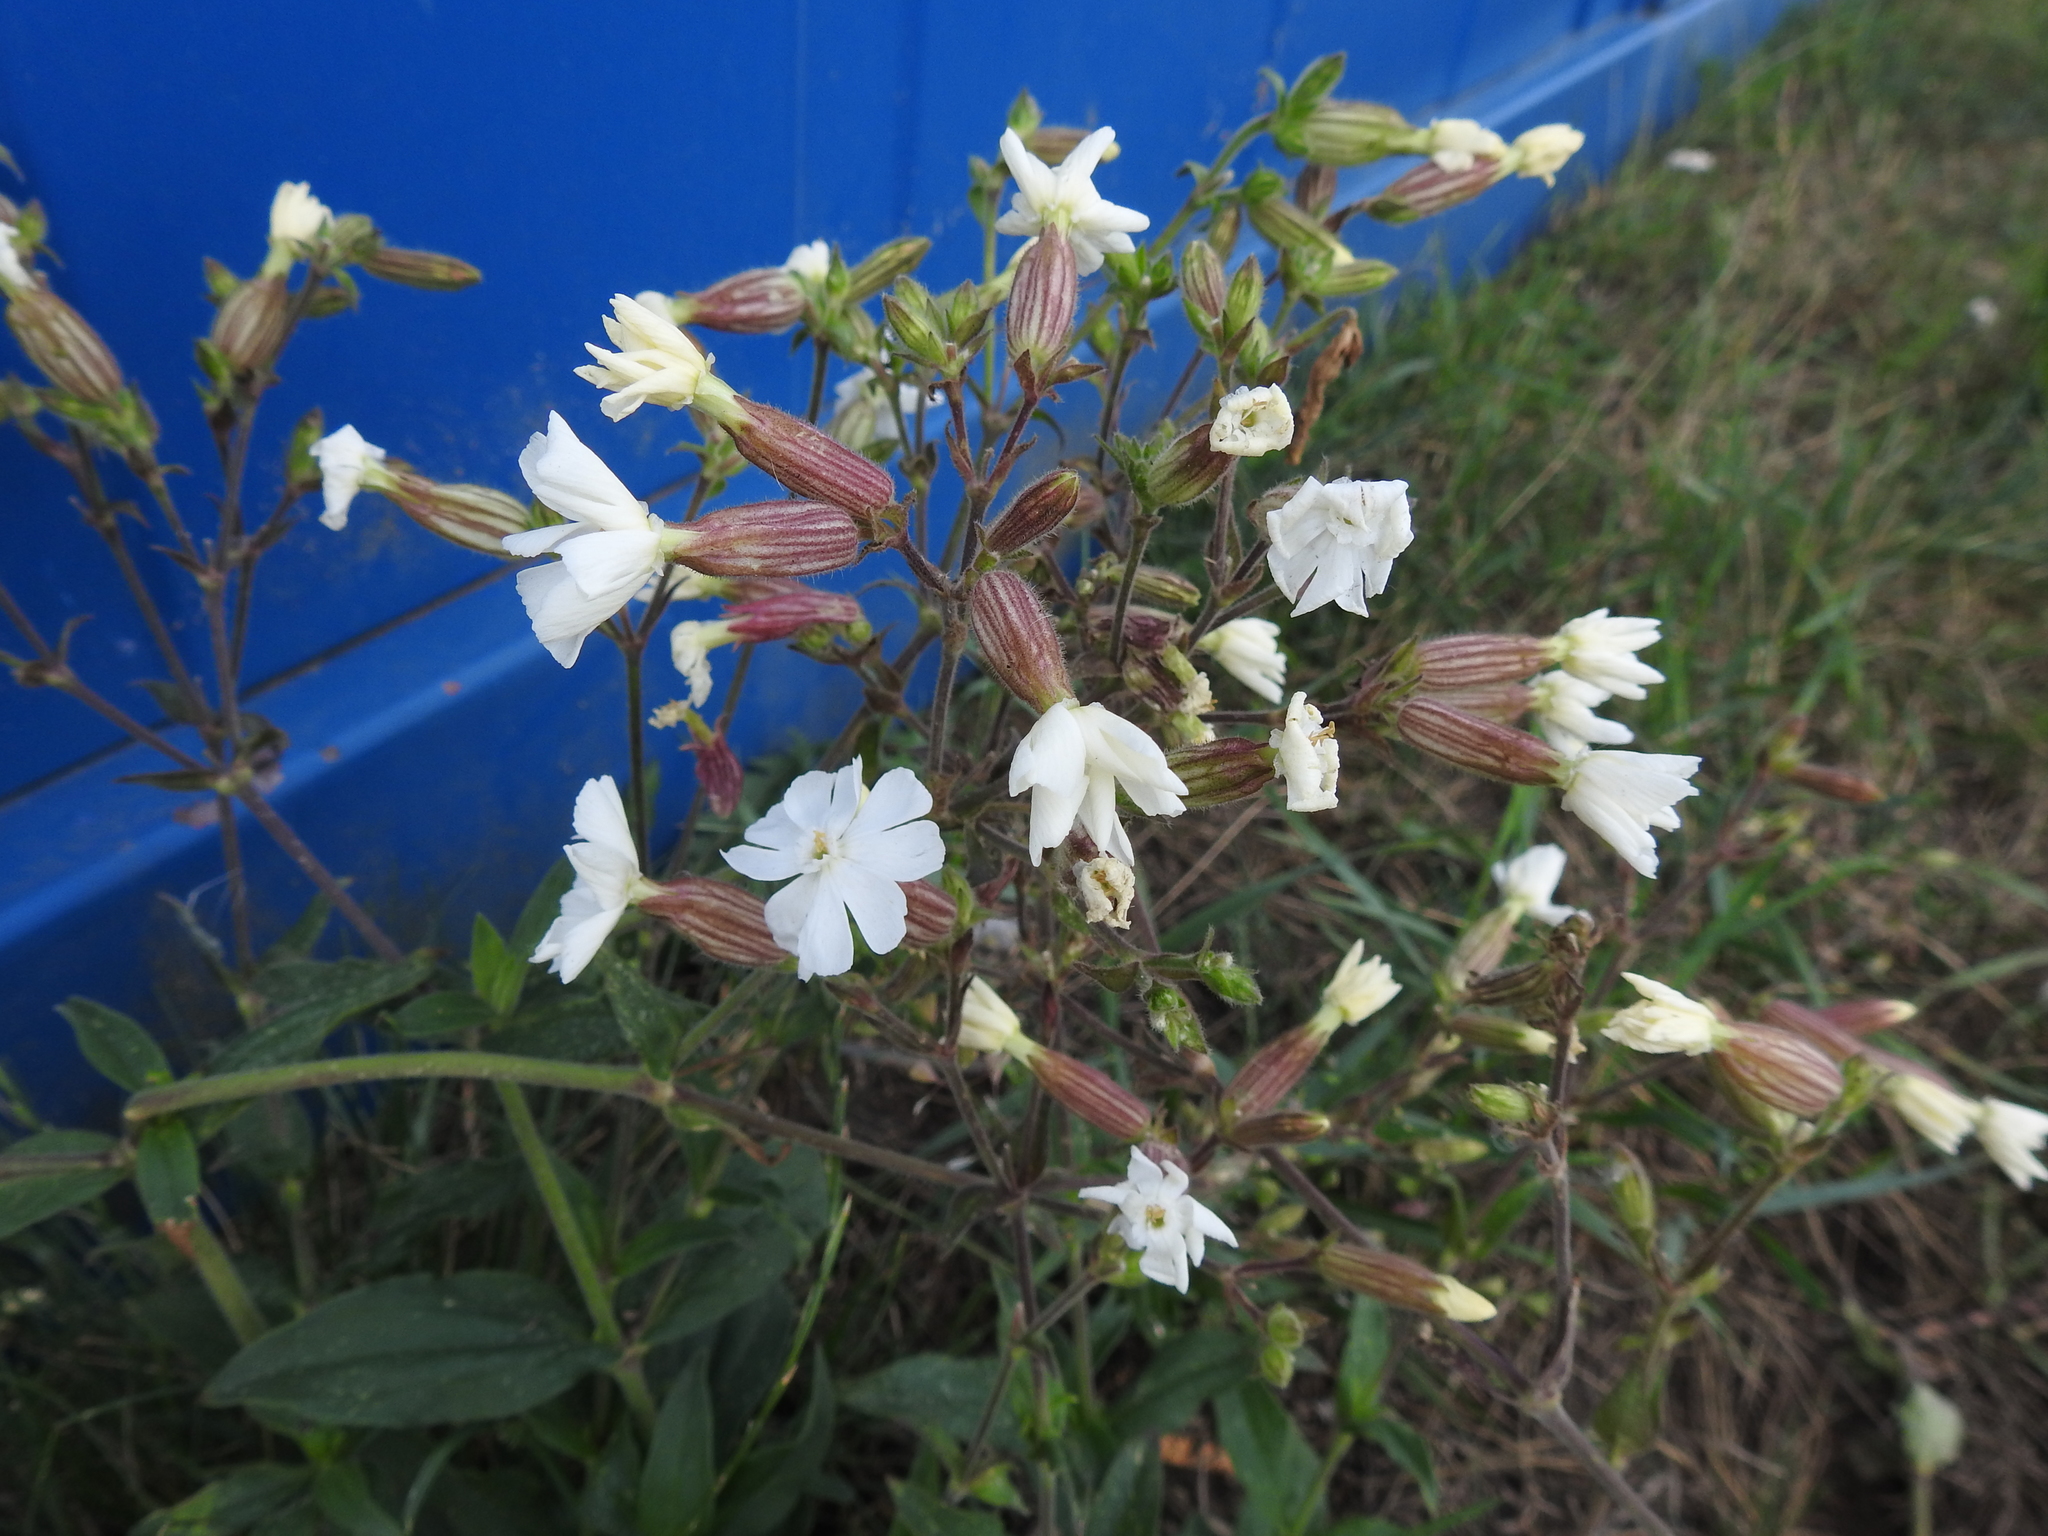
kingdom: Plantae
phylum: Tracheophyta
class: Magnoliopsida
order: Caryophyllales
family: Caryophyllaceae
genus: Silene
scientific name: Silene latifolia
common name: White campion
